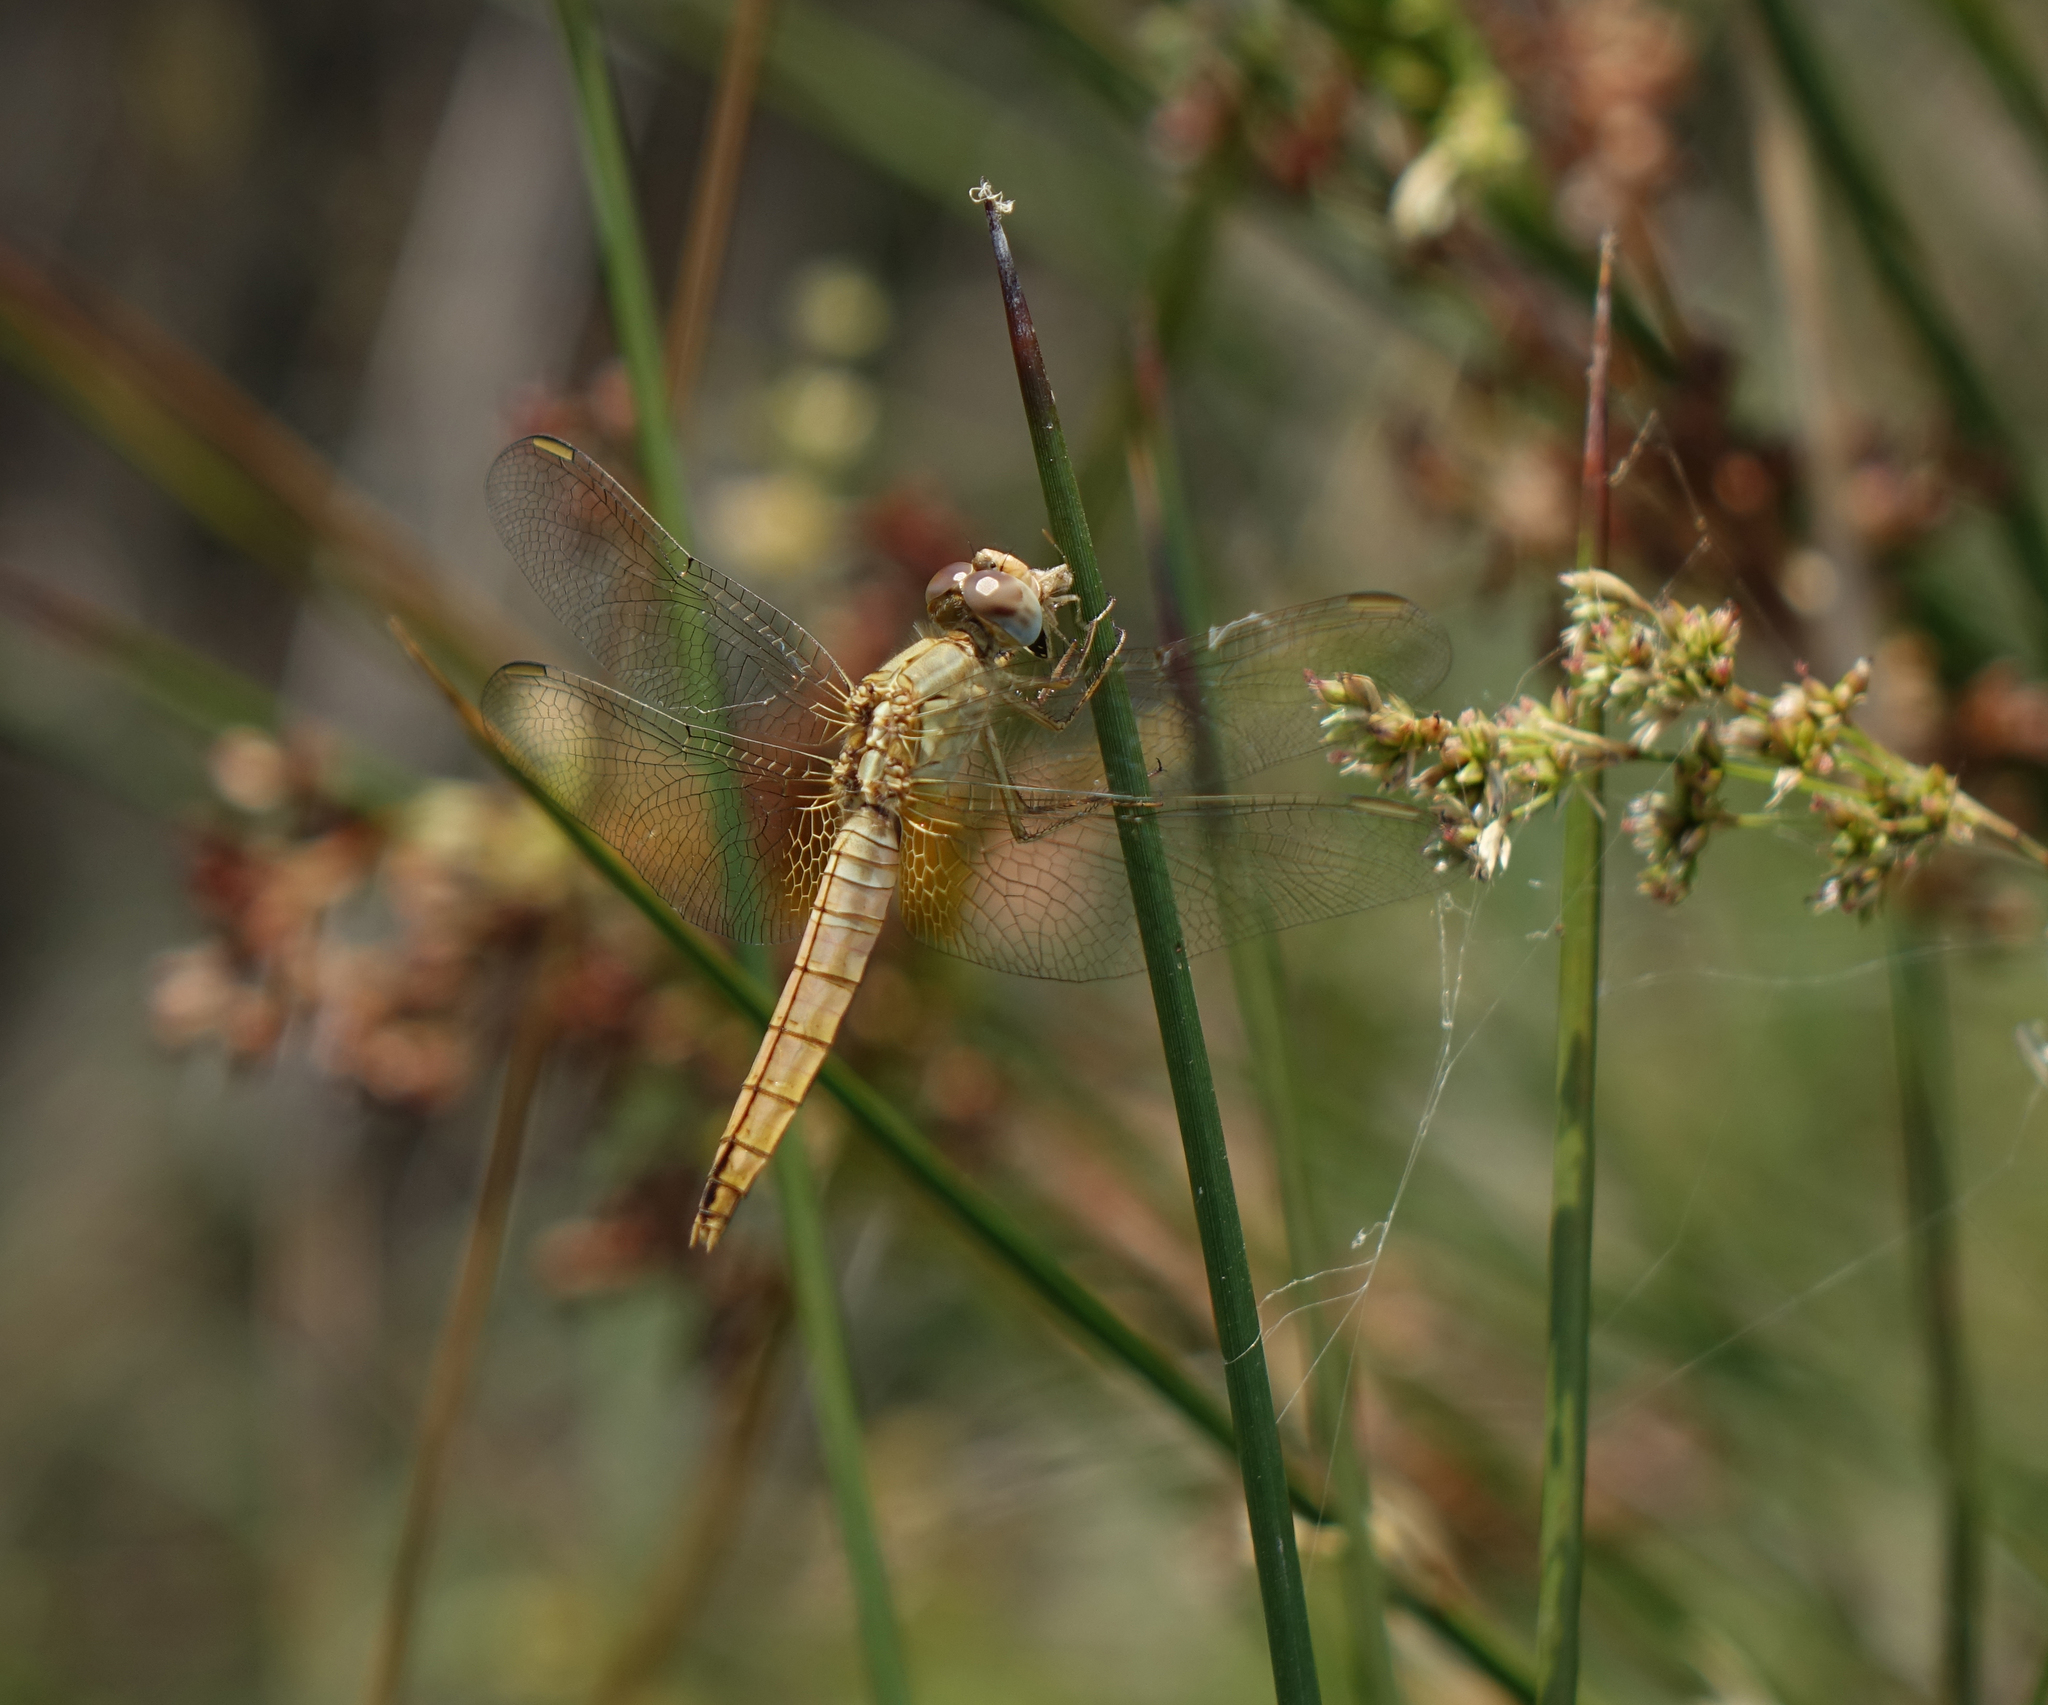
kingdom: Animalia
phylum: Arthropoda
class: Insecta
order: Odonata
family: Libellulidae
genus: Crocothemis
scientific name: Crocothemis erythraea
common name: Scarlet dragonfly
